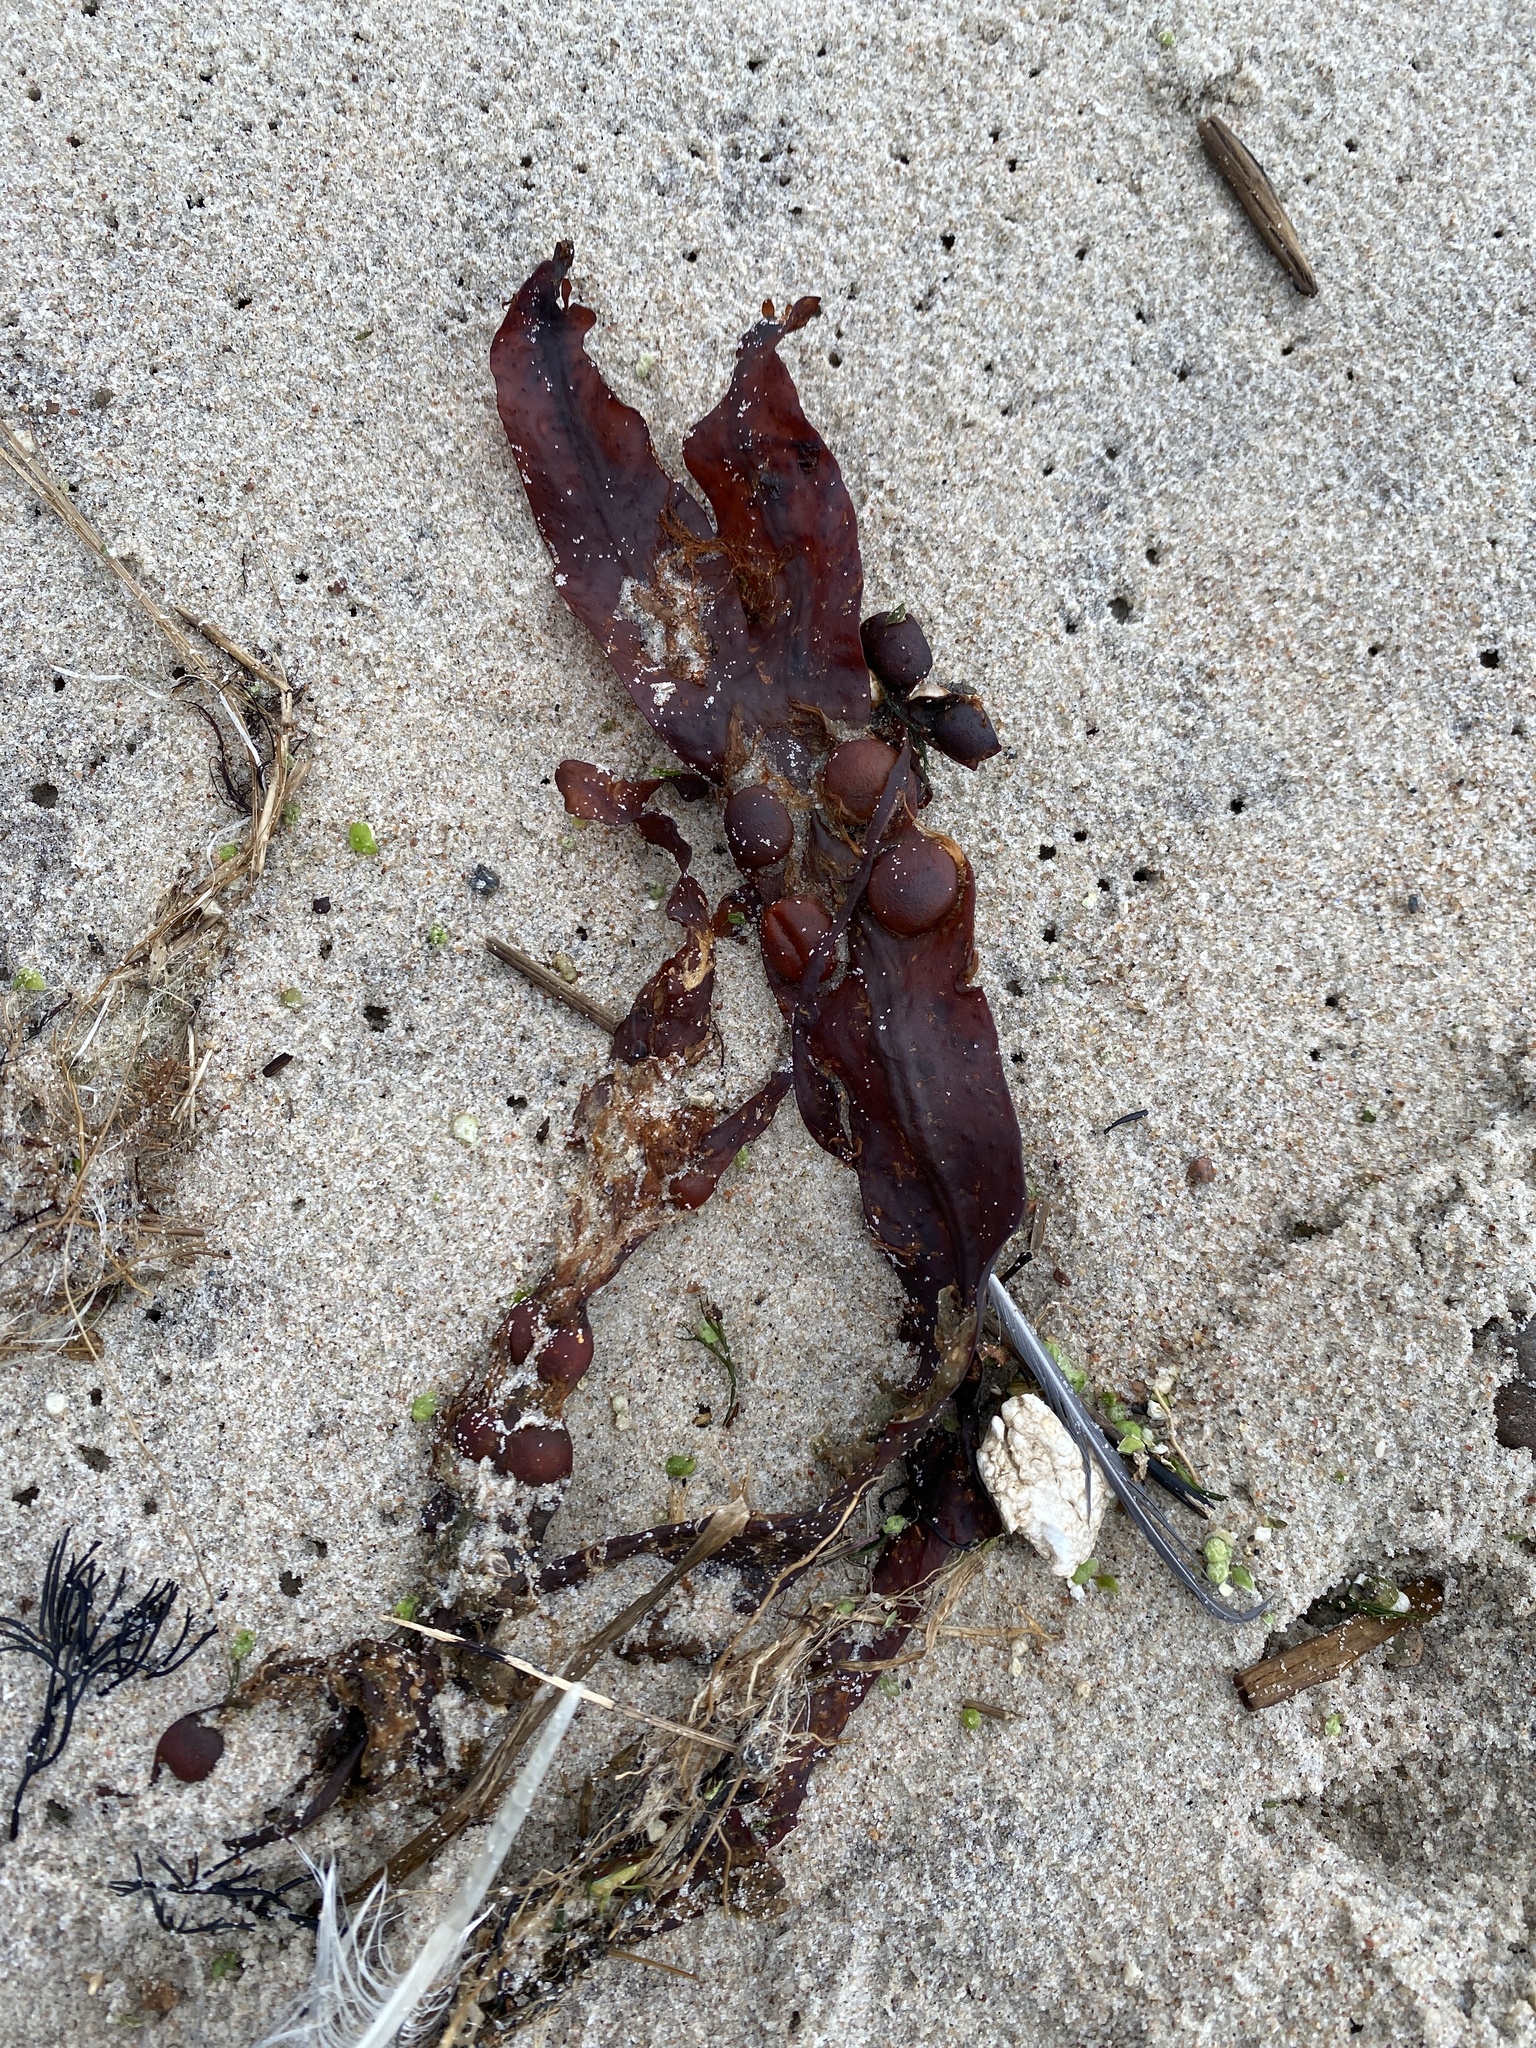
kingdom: Chromista
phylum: Ochrophyta
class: Phaeophyceae
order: Fucales
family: Fucaceae
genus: Fucus
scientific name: Fucus vesiculosus
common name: Bladder wrack
